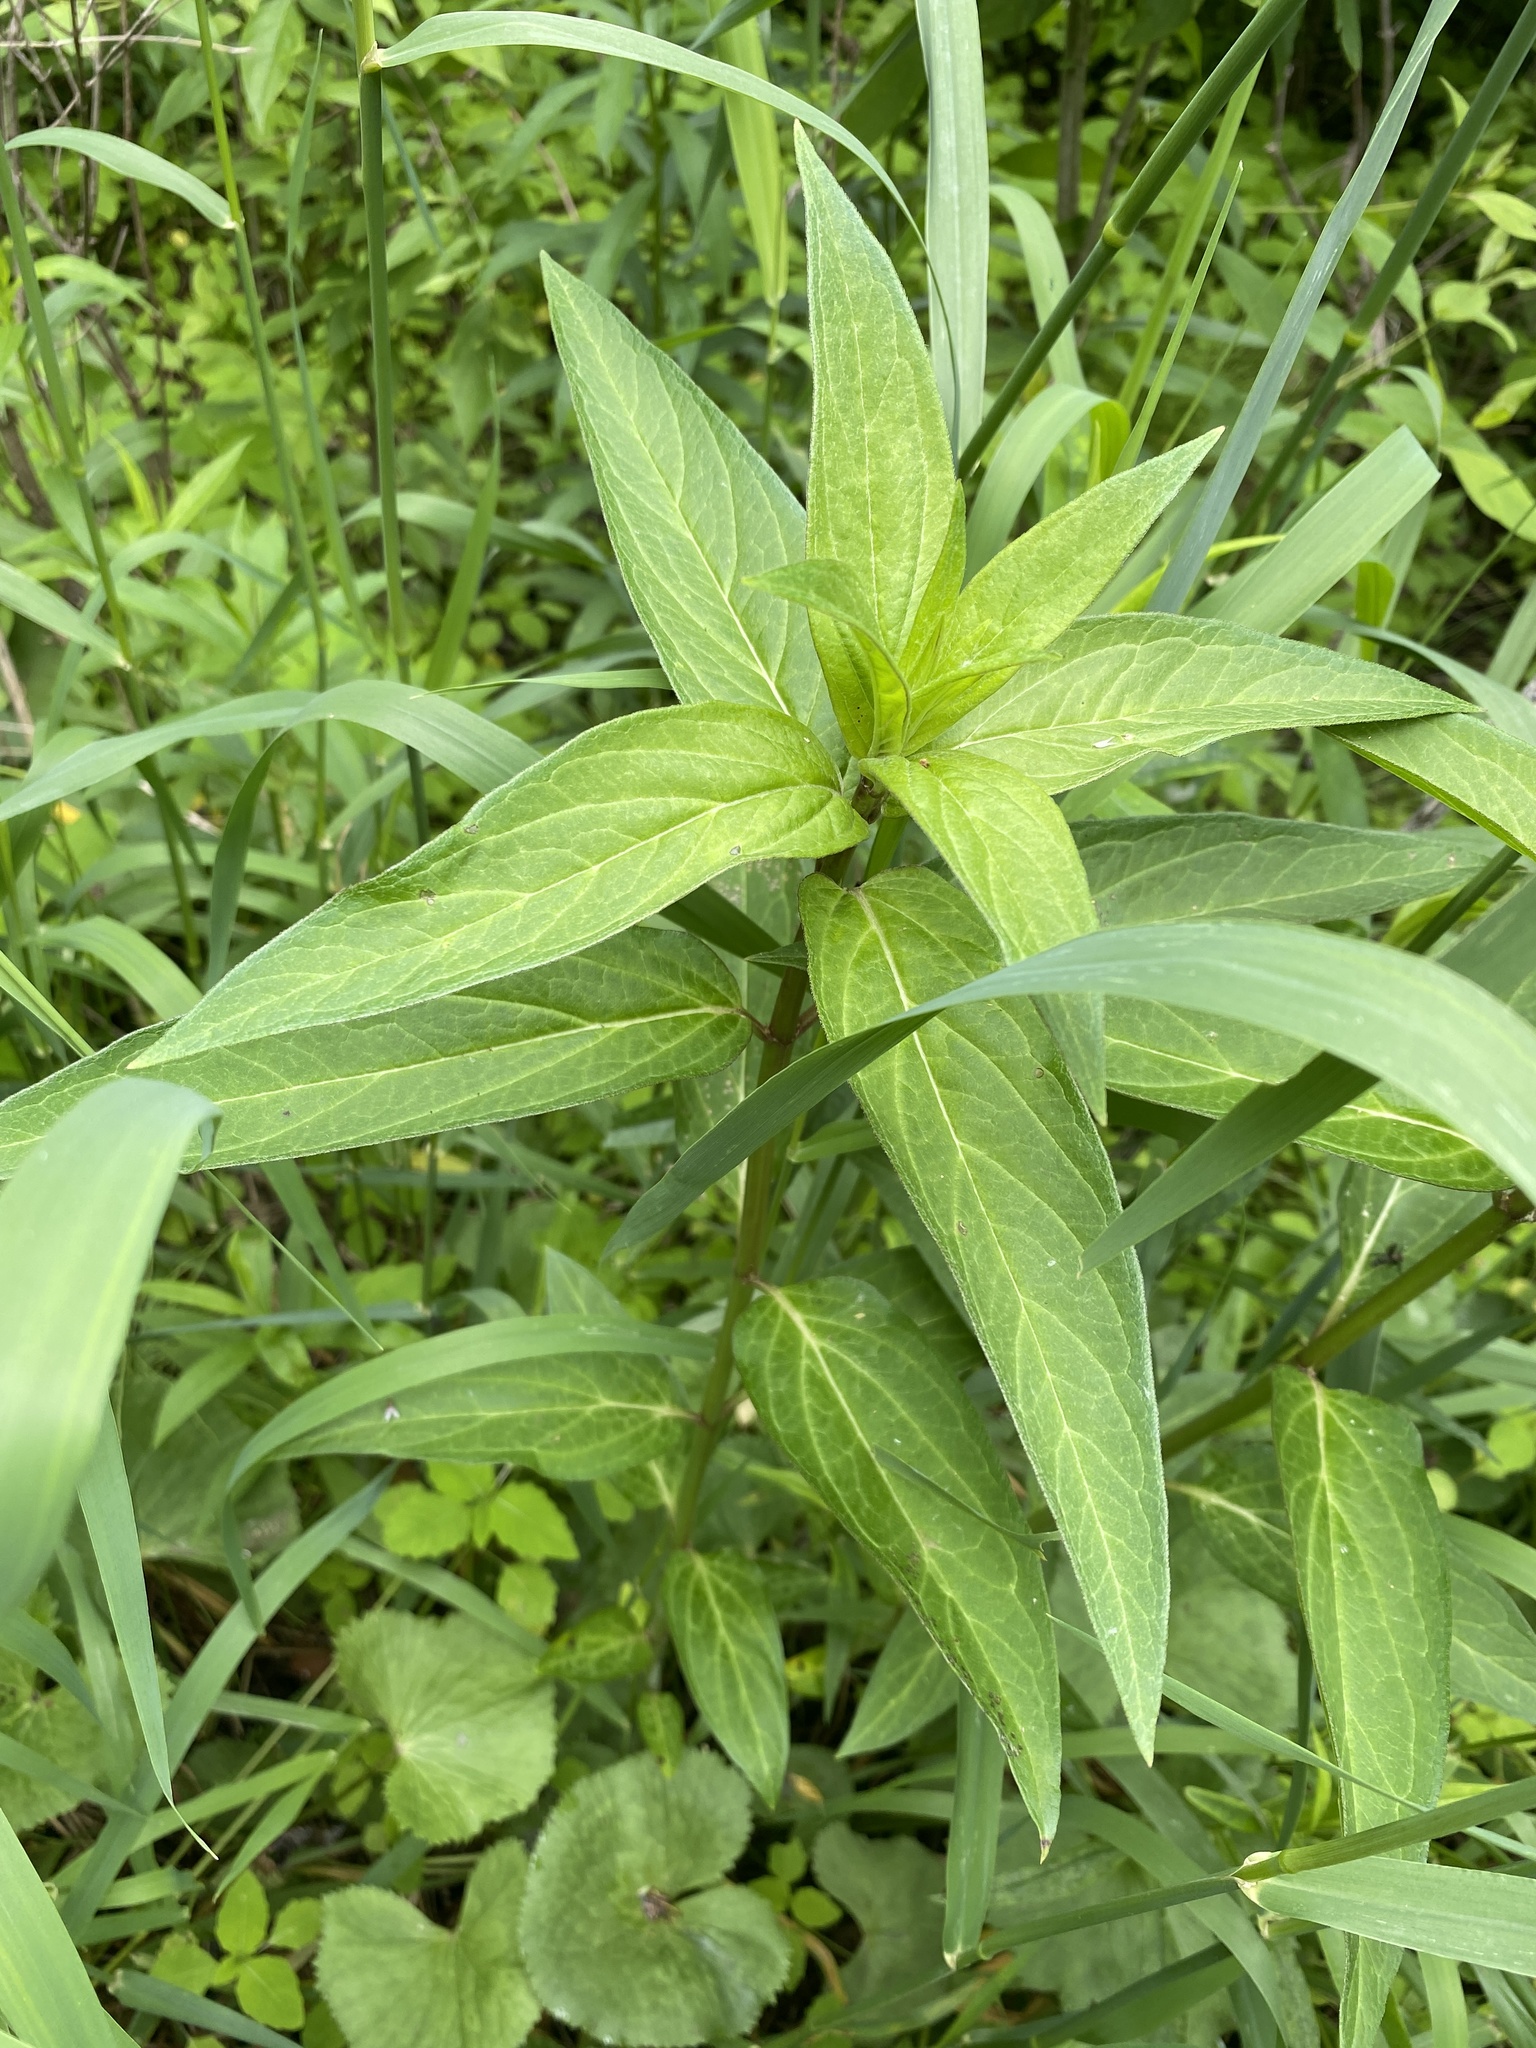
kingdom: Plantae
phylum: Tracheophyta
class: Magnoliopsida
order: Gentianales
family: Apocynaceae
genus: Asclepias
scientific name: Asclepias incarnata
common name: Swamp milkweed
